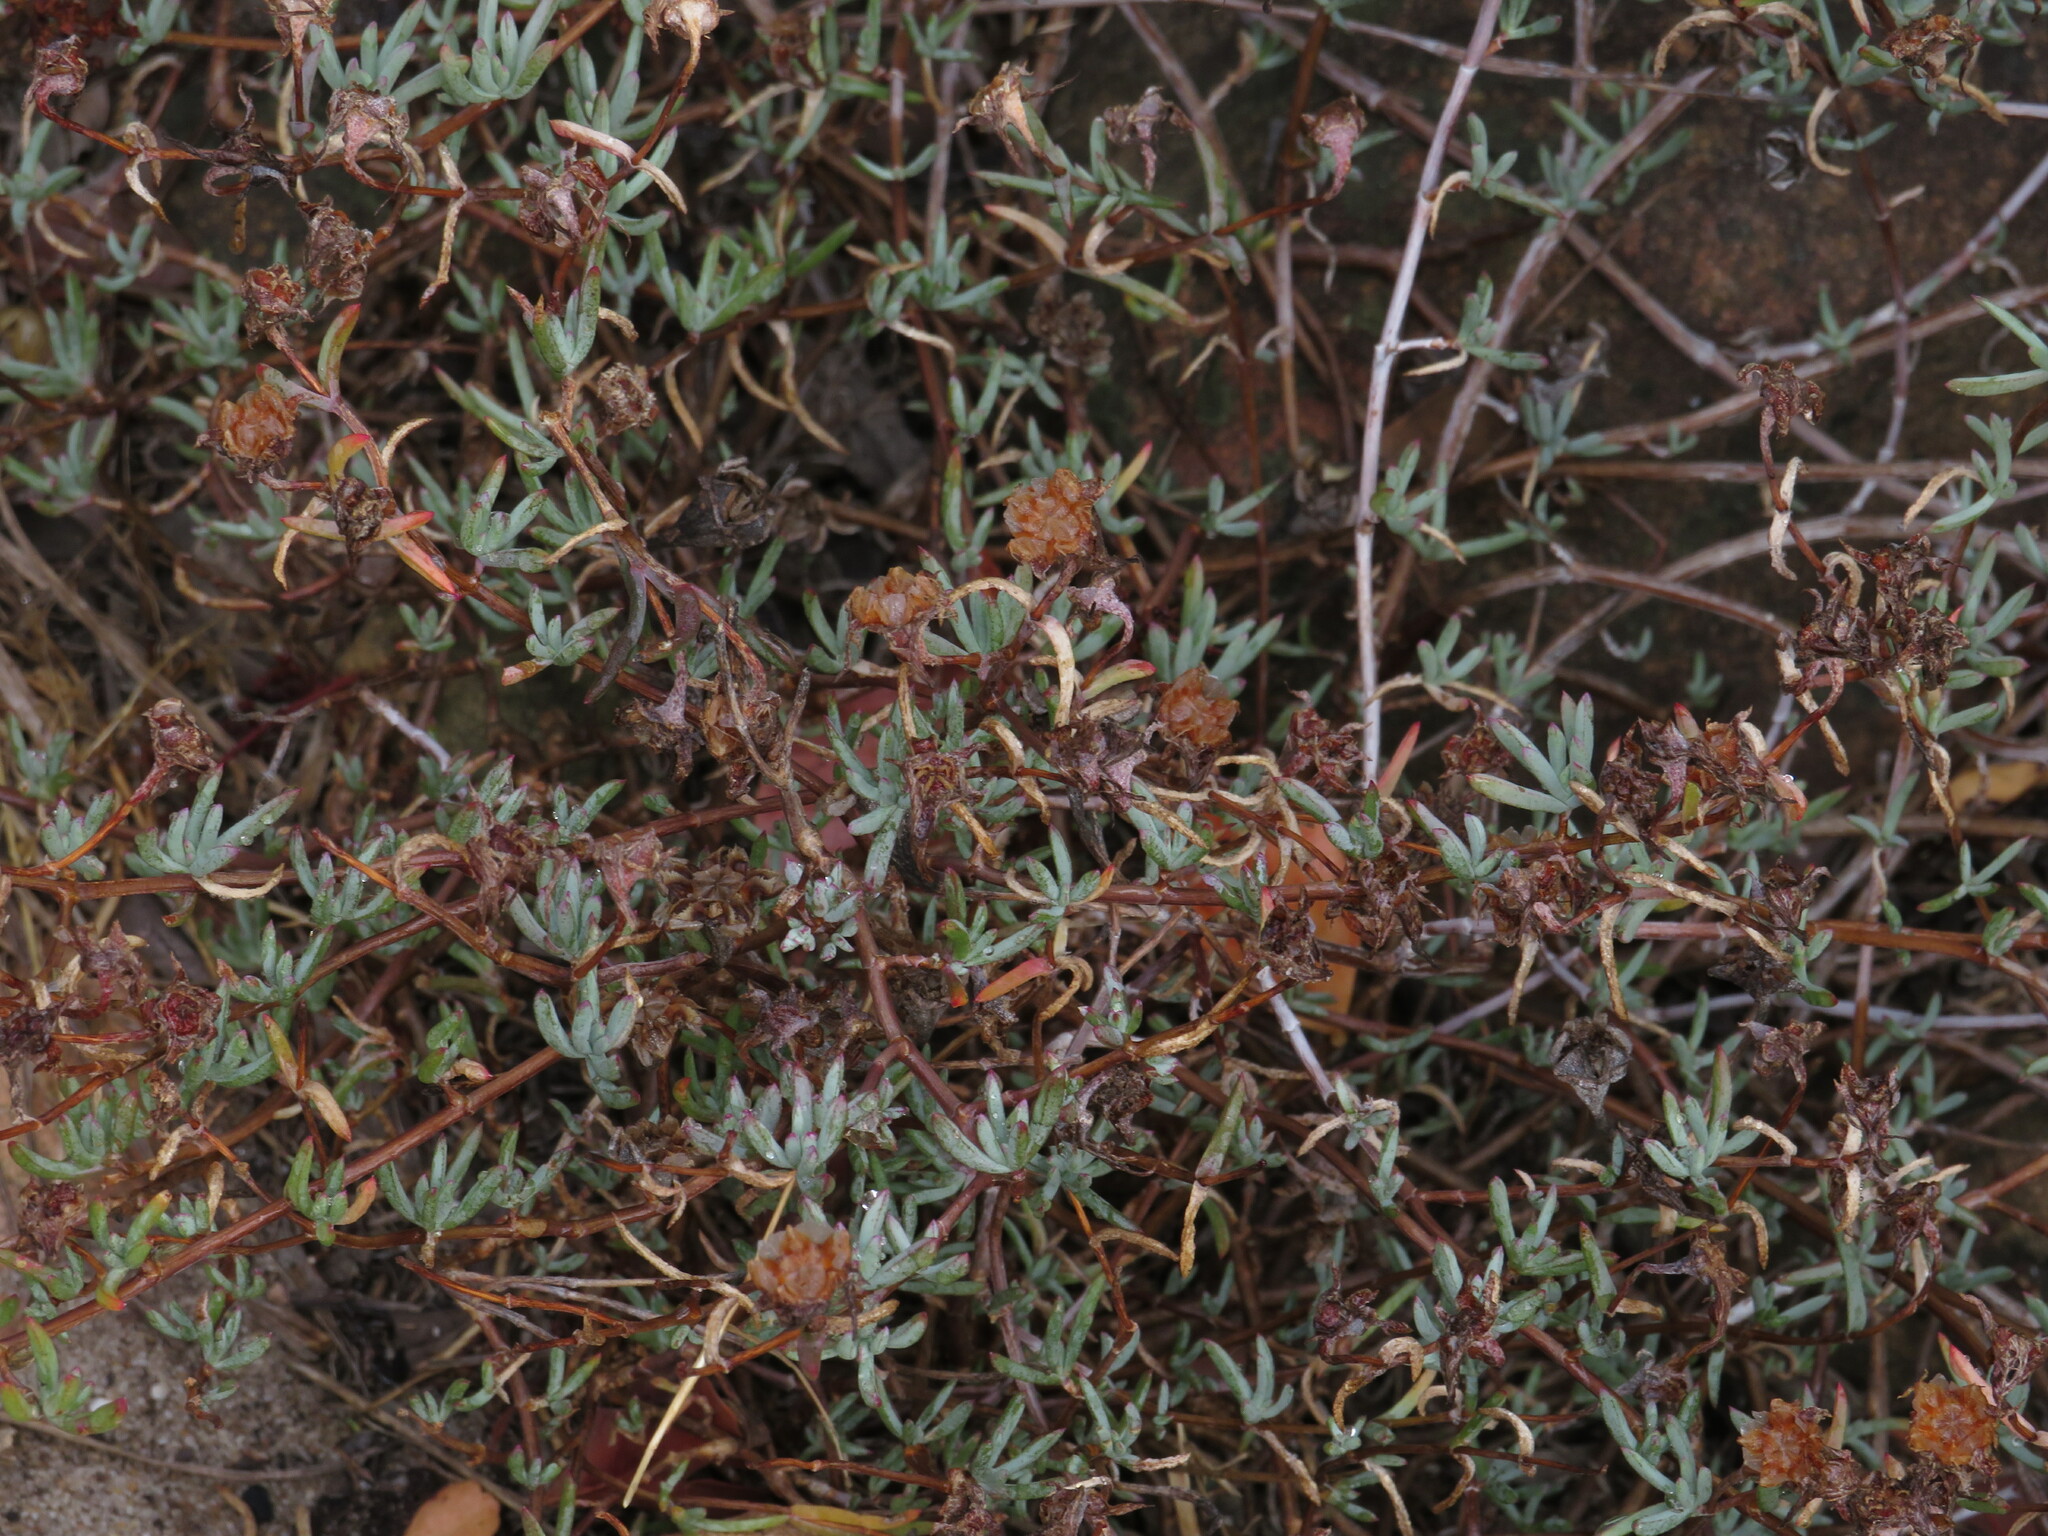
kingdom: Plantae
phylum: Tracheophyta
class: Magnoliopsida
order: Caryophyllales
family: Aizoaceae
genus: Lampranthus
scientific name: Lampranthus emarginatus
